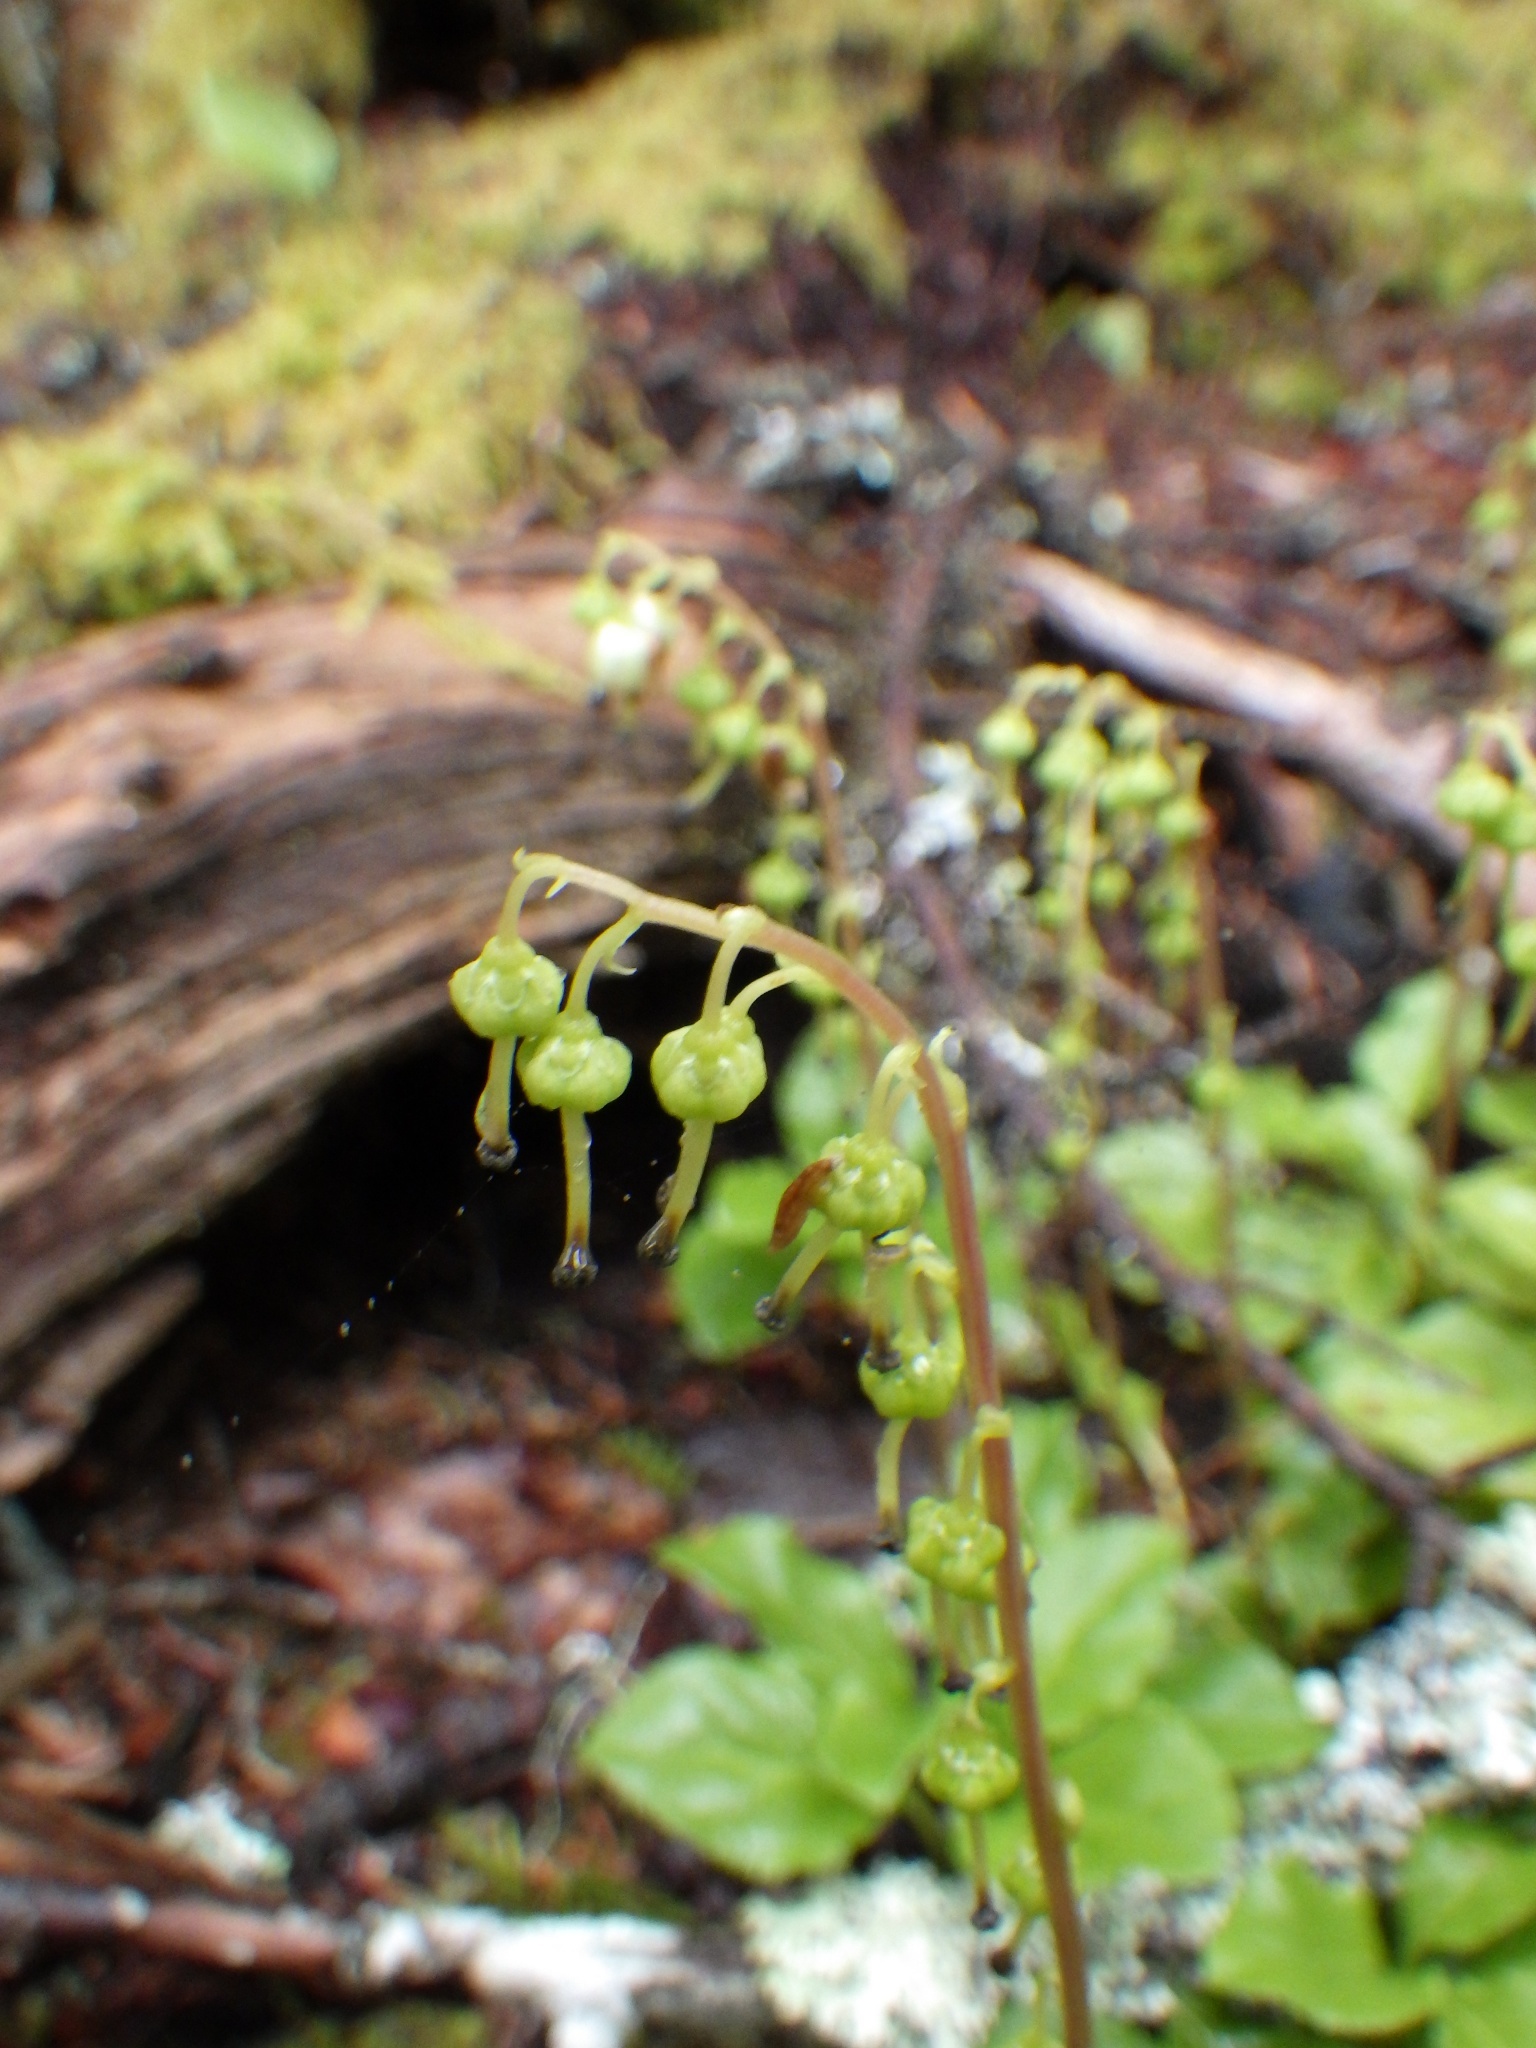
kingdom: Plantae
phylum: Tracheophyta
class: Magnoliopsida
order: Ericales
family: Ericaceae
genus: Orthilia
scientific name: Orthilia secunda
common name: One-sided orthilia
